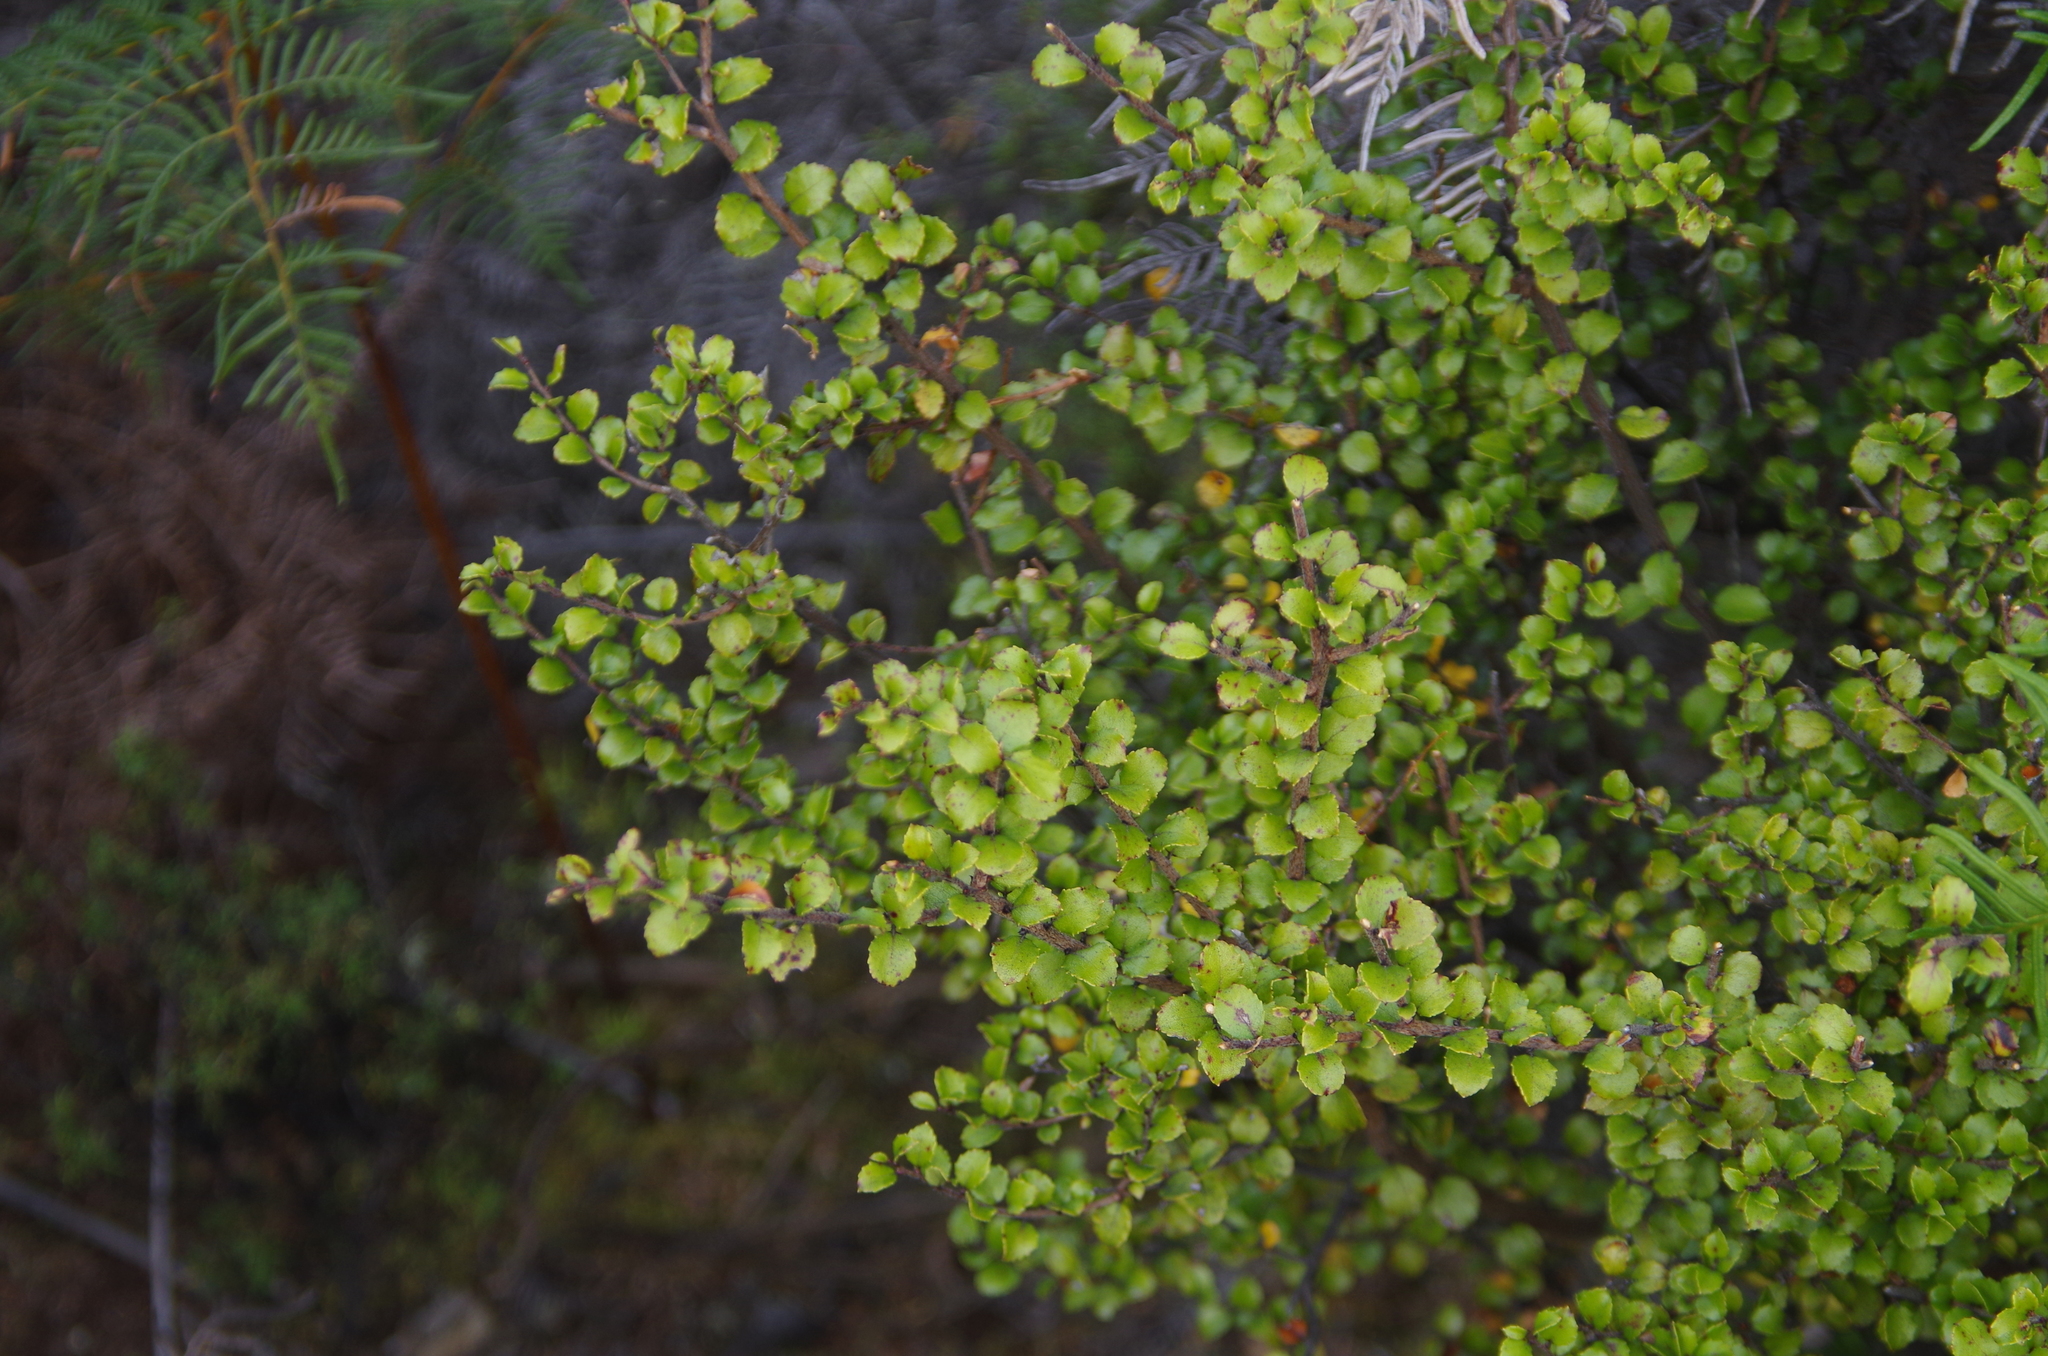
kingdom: Plantae
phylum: Tracheophyta
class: Magnoliopsida
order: Ericales
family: Ericaceae
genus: Gaultheria
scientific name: Gaultheria antipoda
